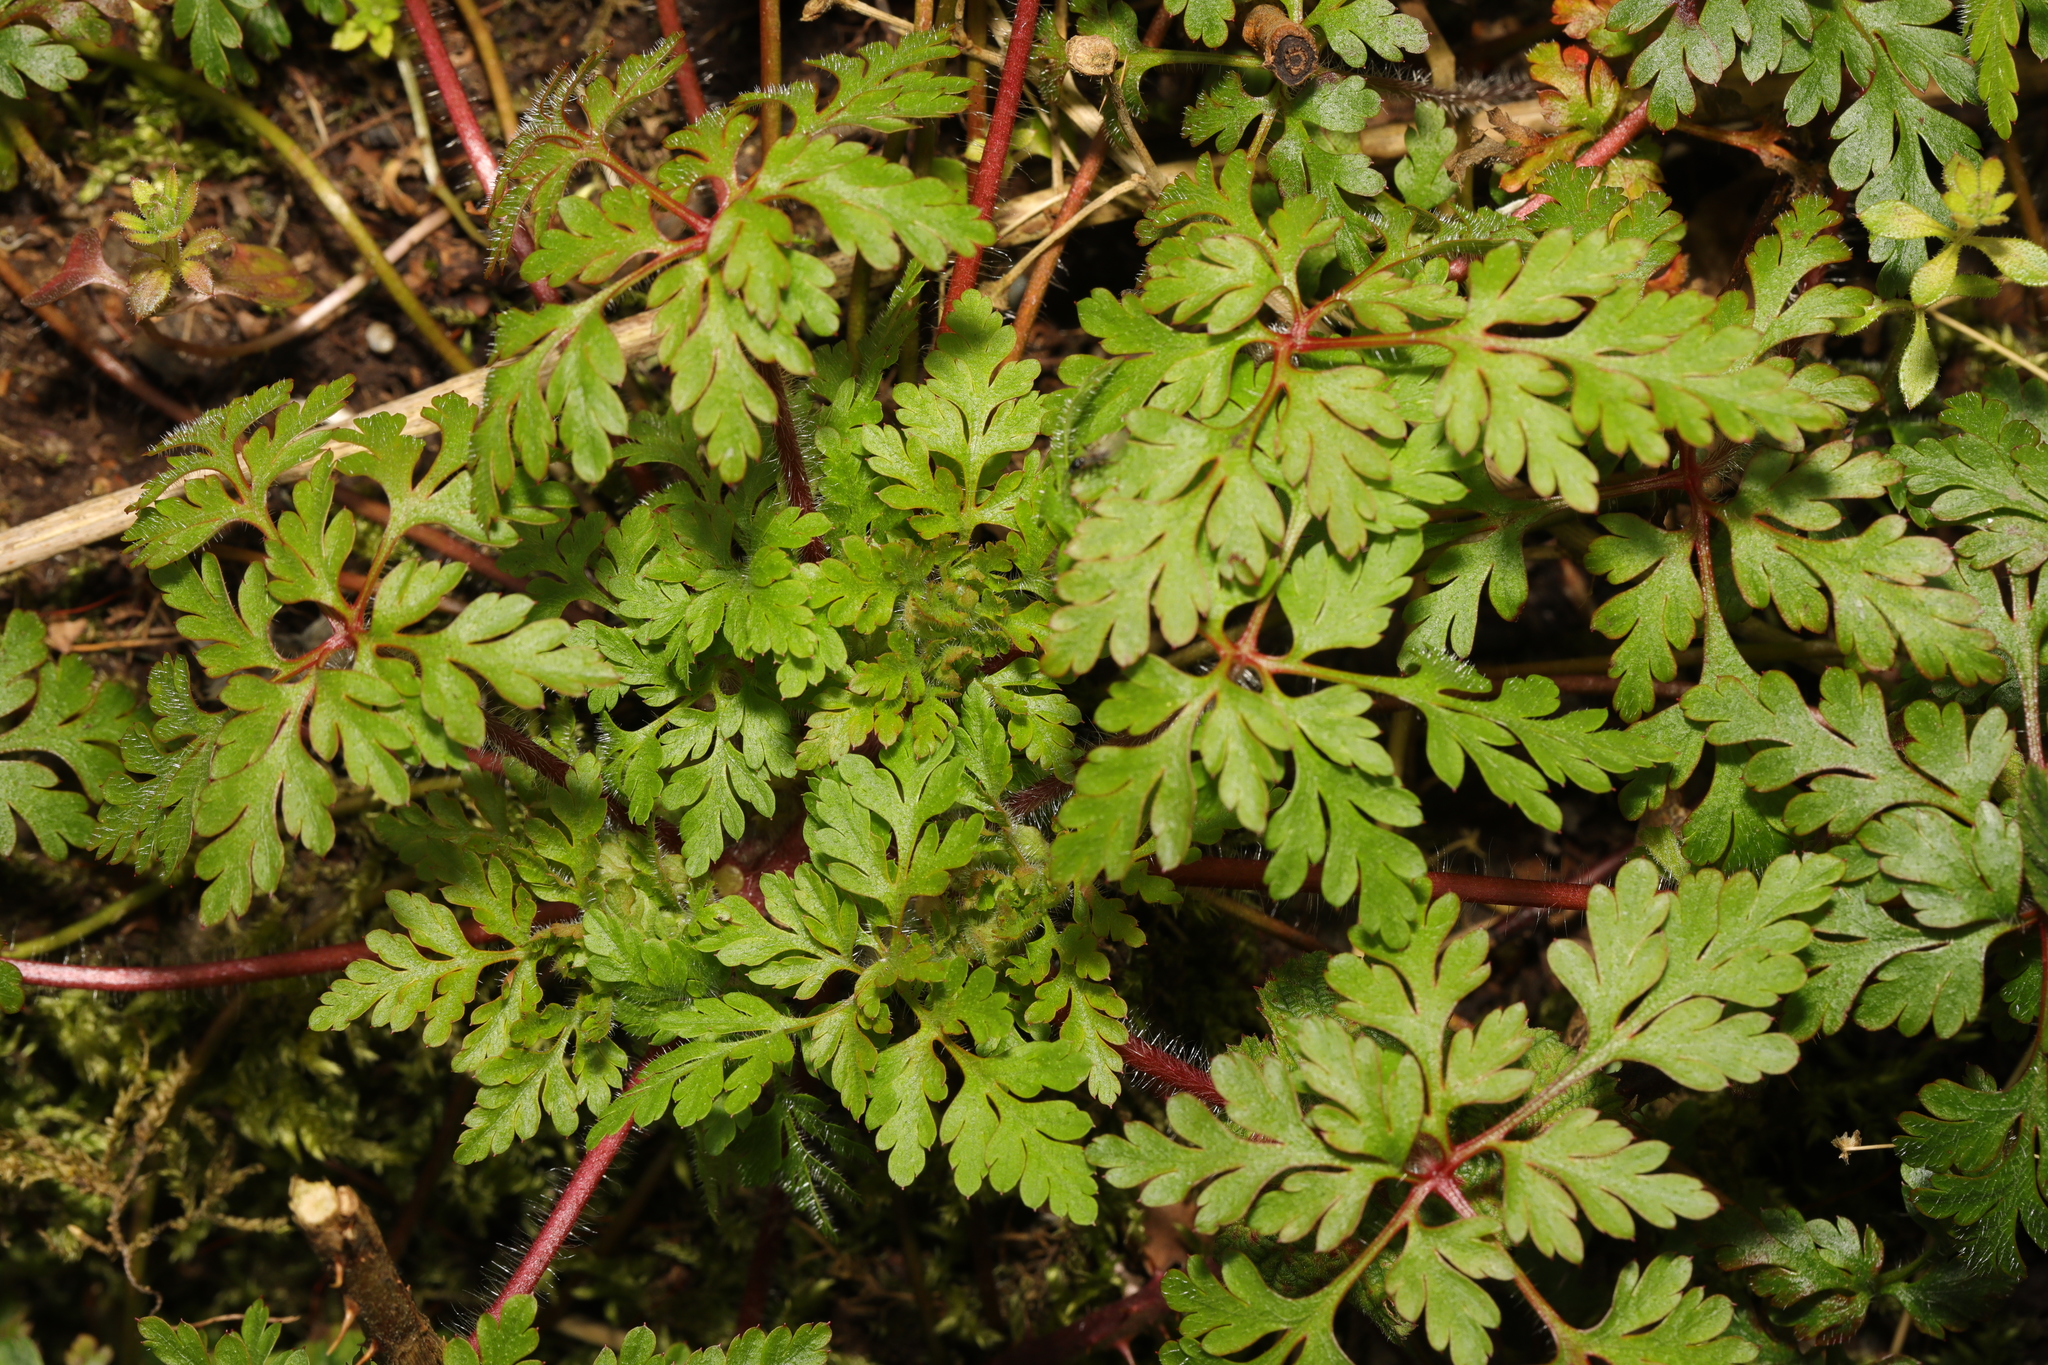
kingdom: Plantae
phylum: Tracheophyta
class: Magnoliopsida
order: Geraniales
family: Geraniaceae
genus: Geranium
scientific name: Geranium robertianum
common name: Herb-robert
